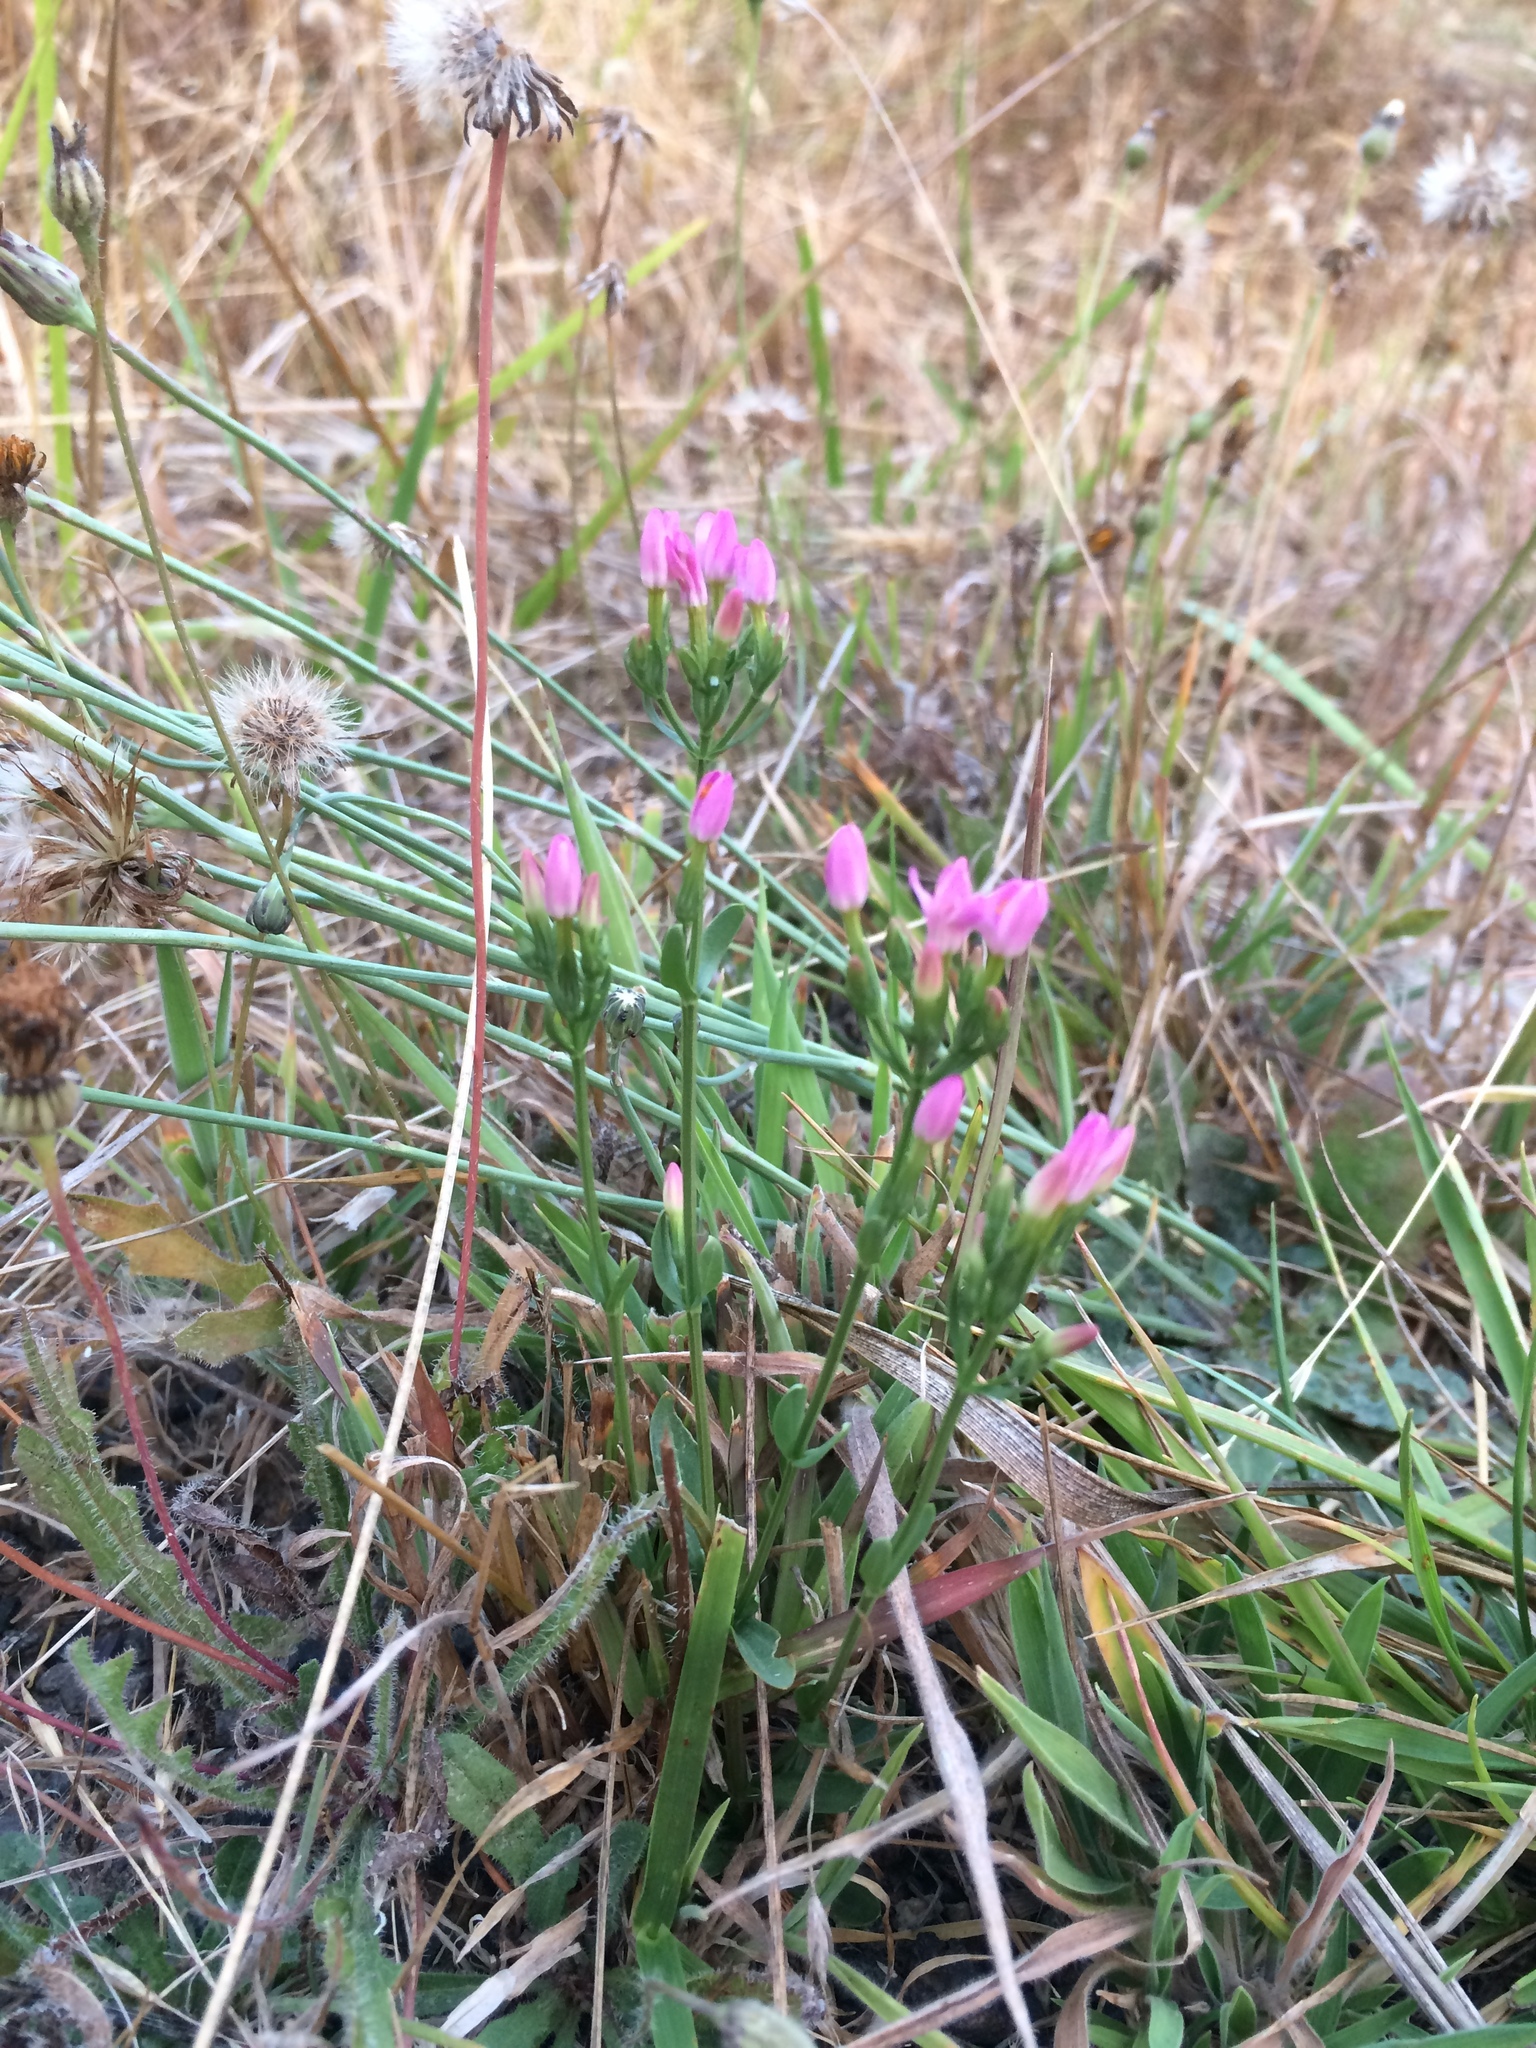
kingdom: Plantae
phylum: Tracheophyta
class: Magnoliopsida
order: Gentianales
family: Gentianaceae
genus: Centaurium
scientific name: Centaurium erythraea
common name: Common centaury
